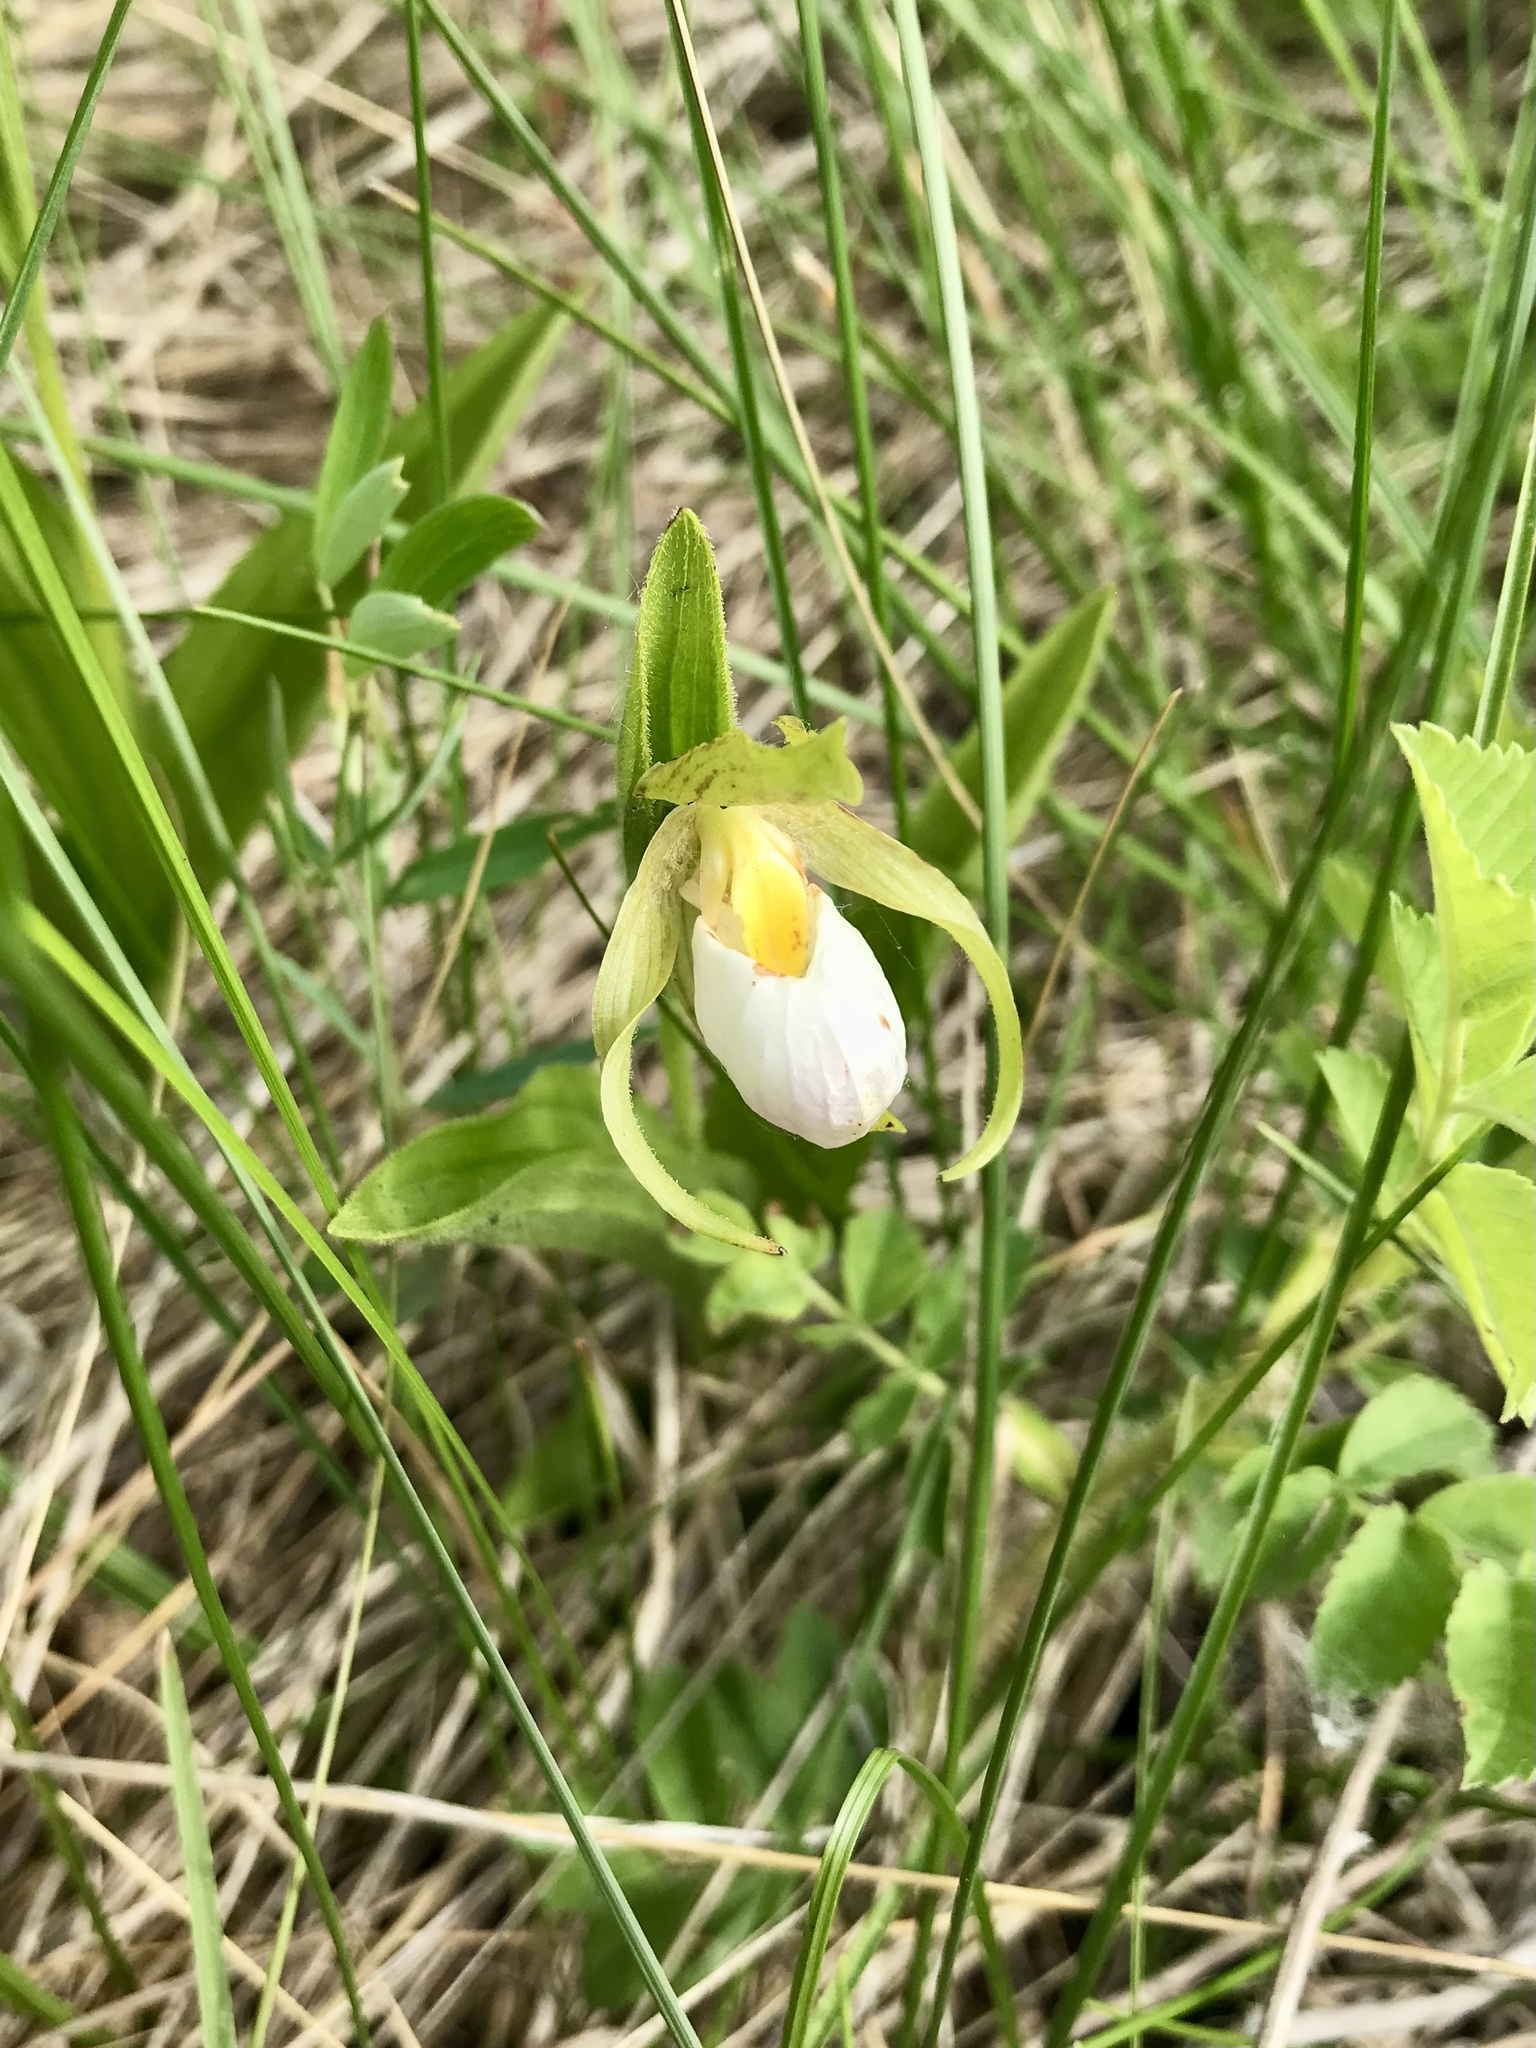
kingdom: Plantae
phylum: Tracheophyta
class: Liliopsida
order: Asparagales
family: Orchidaceae
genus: Cypripedium
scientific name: Cypripedium candidum
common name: White lady's-slipper
